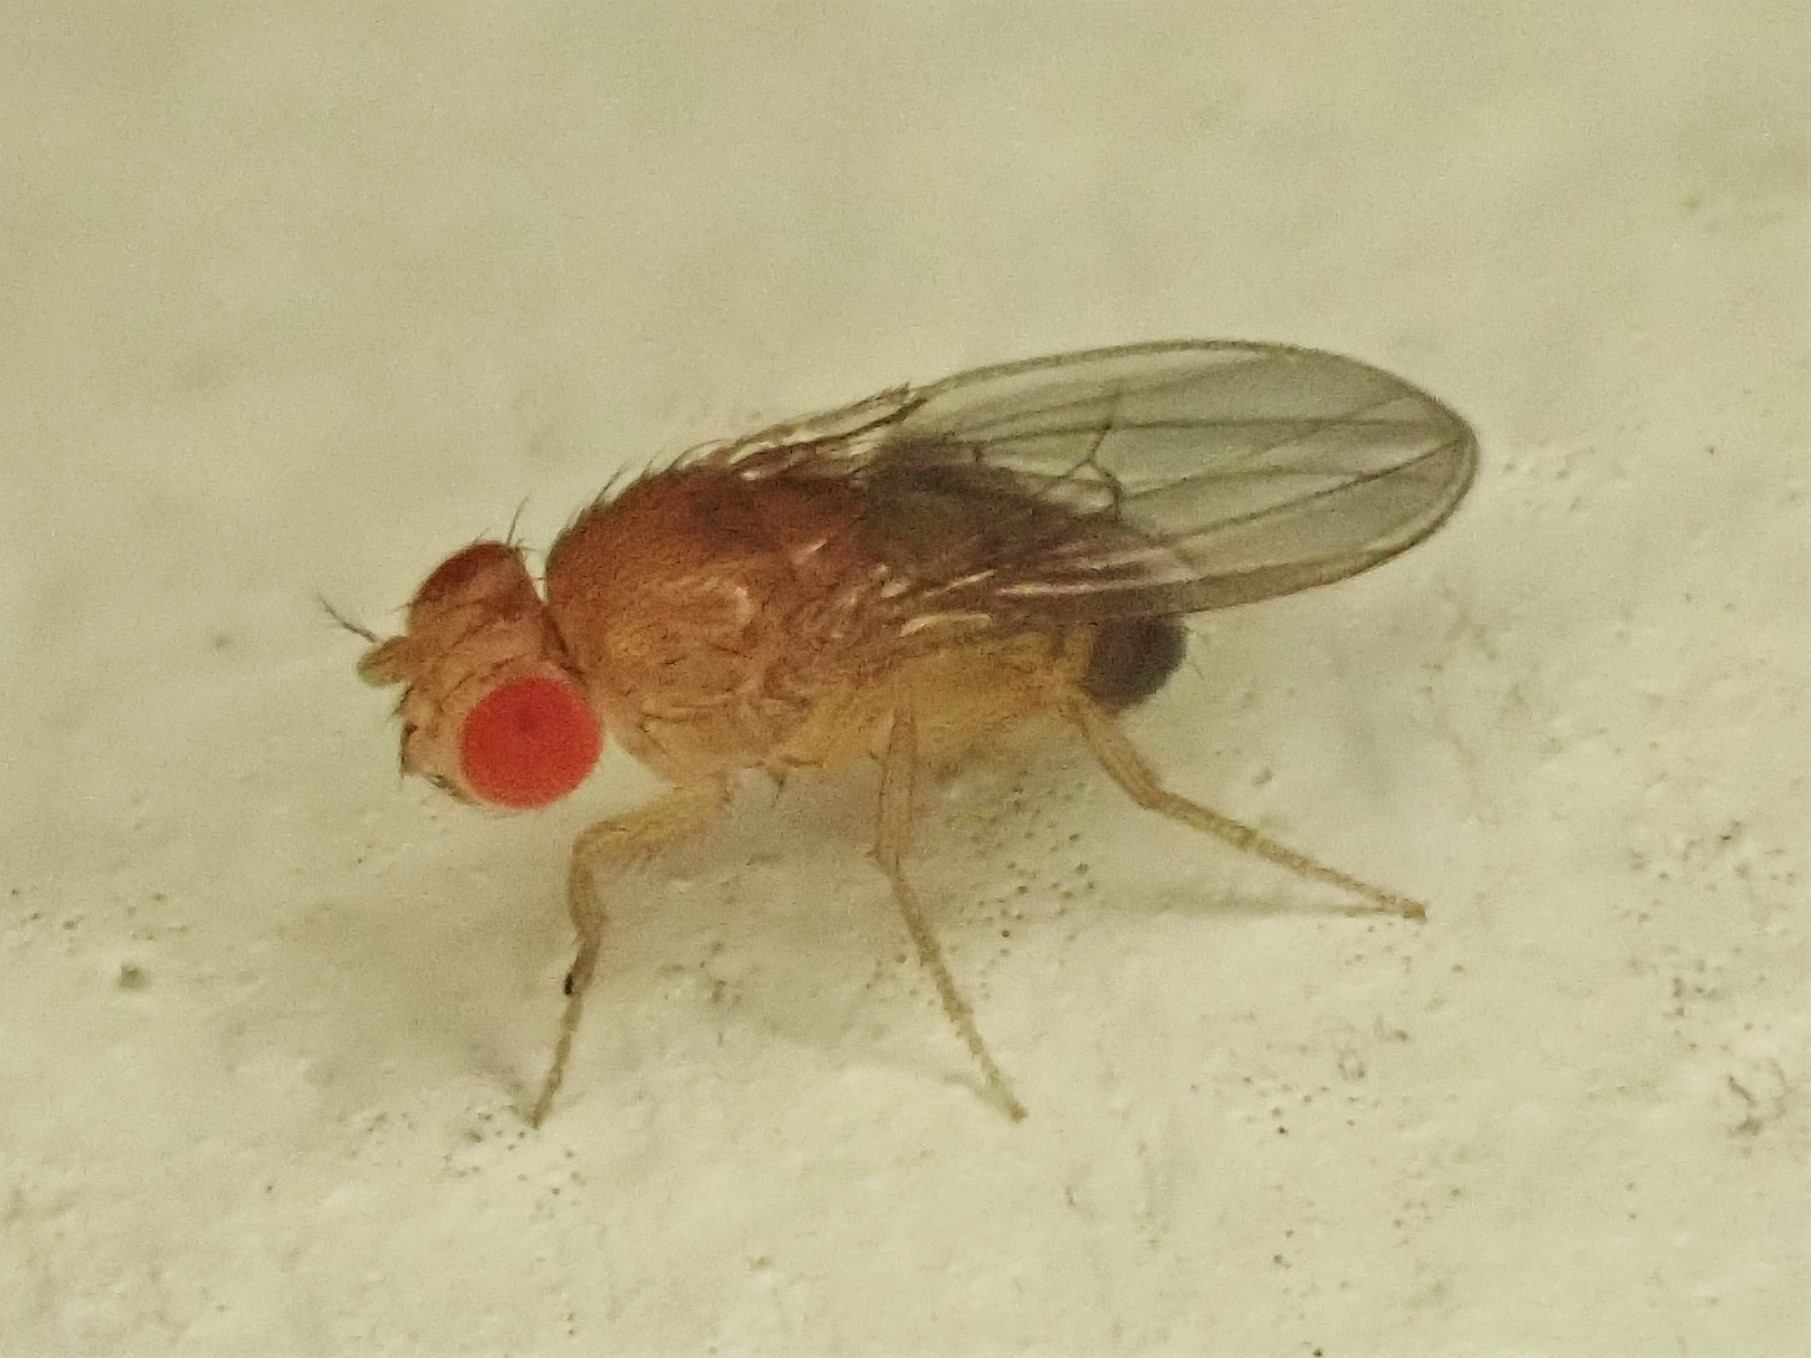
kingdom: Animalia
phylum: Arthropoda
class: Insecta
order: Diptera
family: Drosophilidae
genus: Sophophora
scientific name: Sophophora
